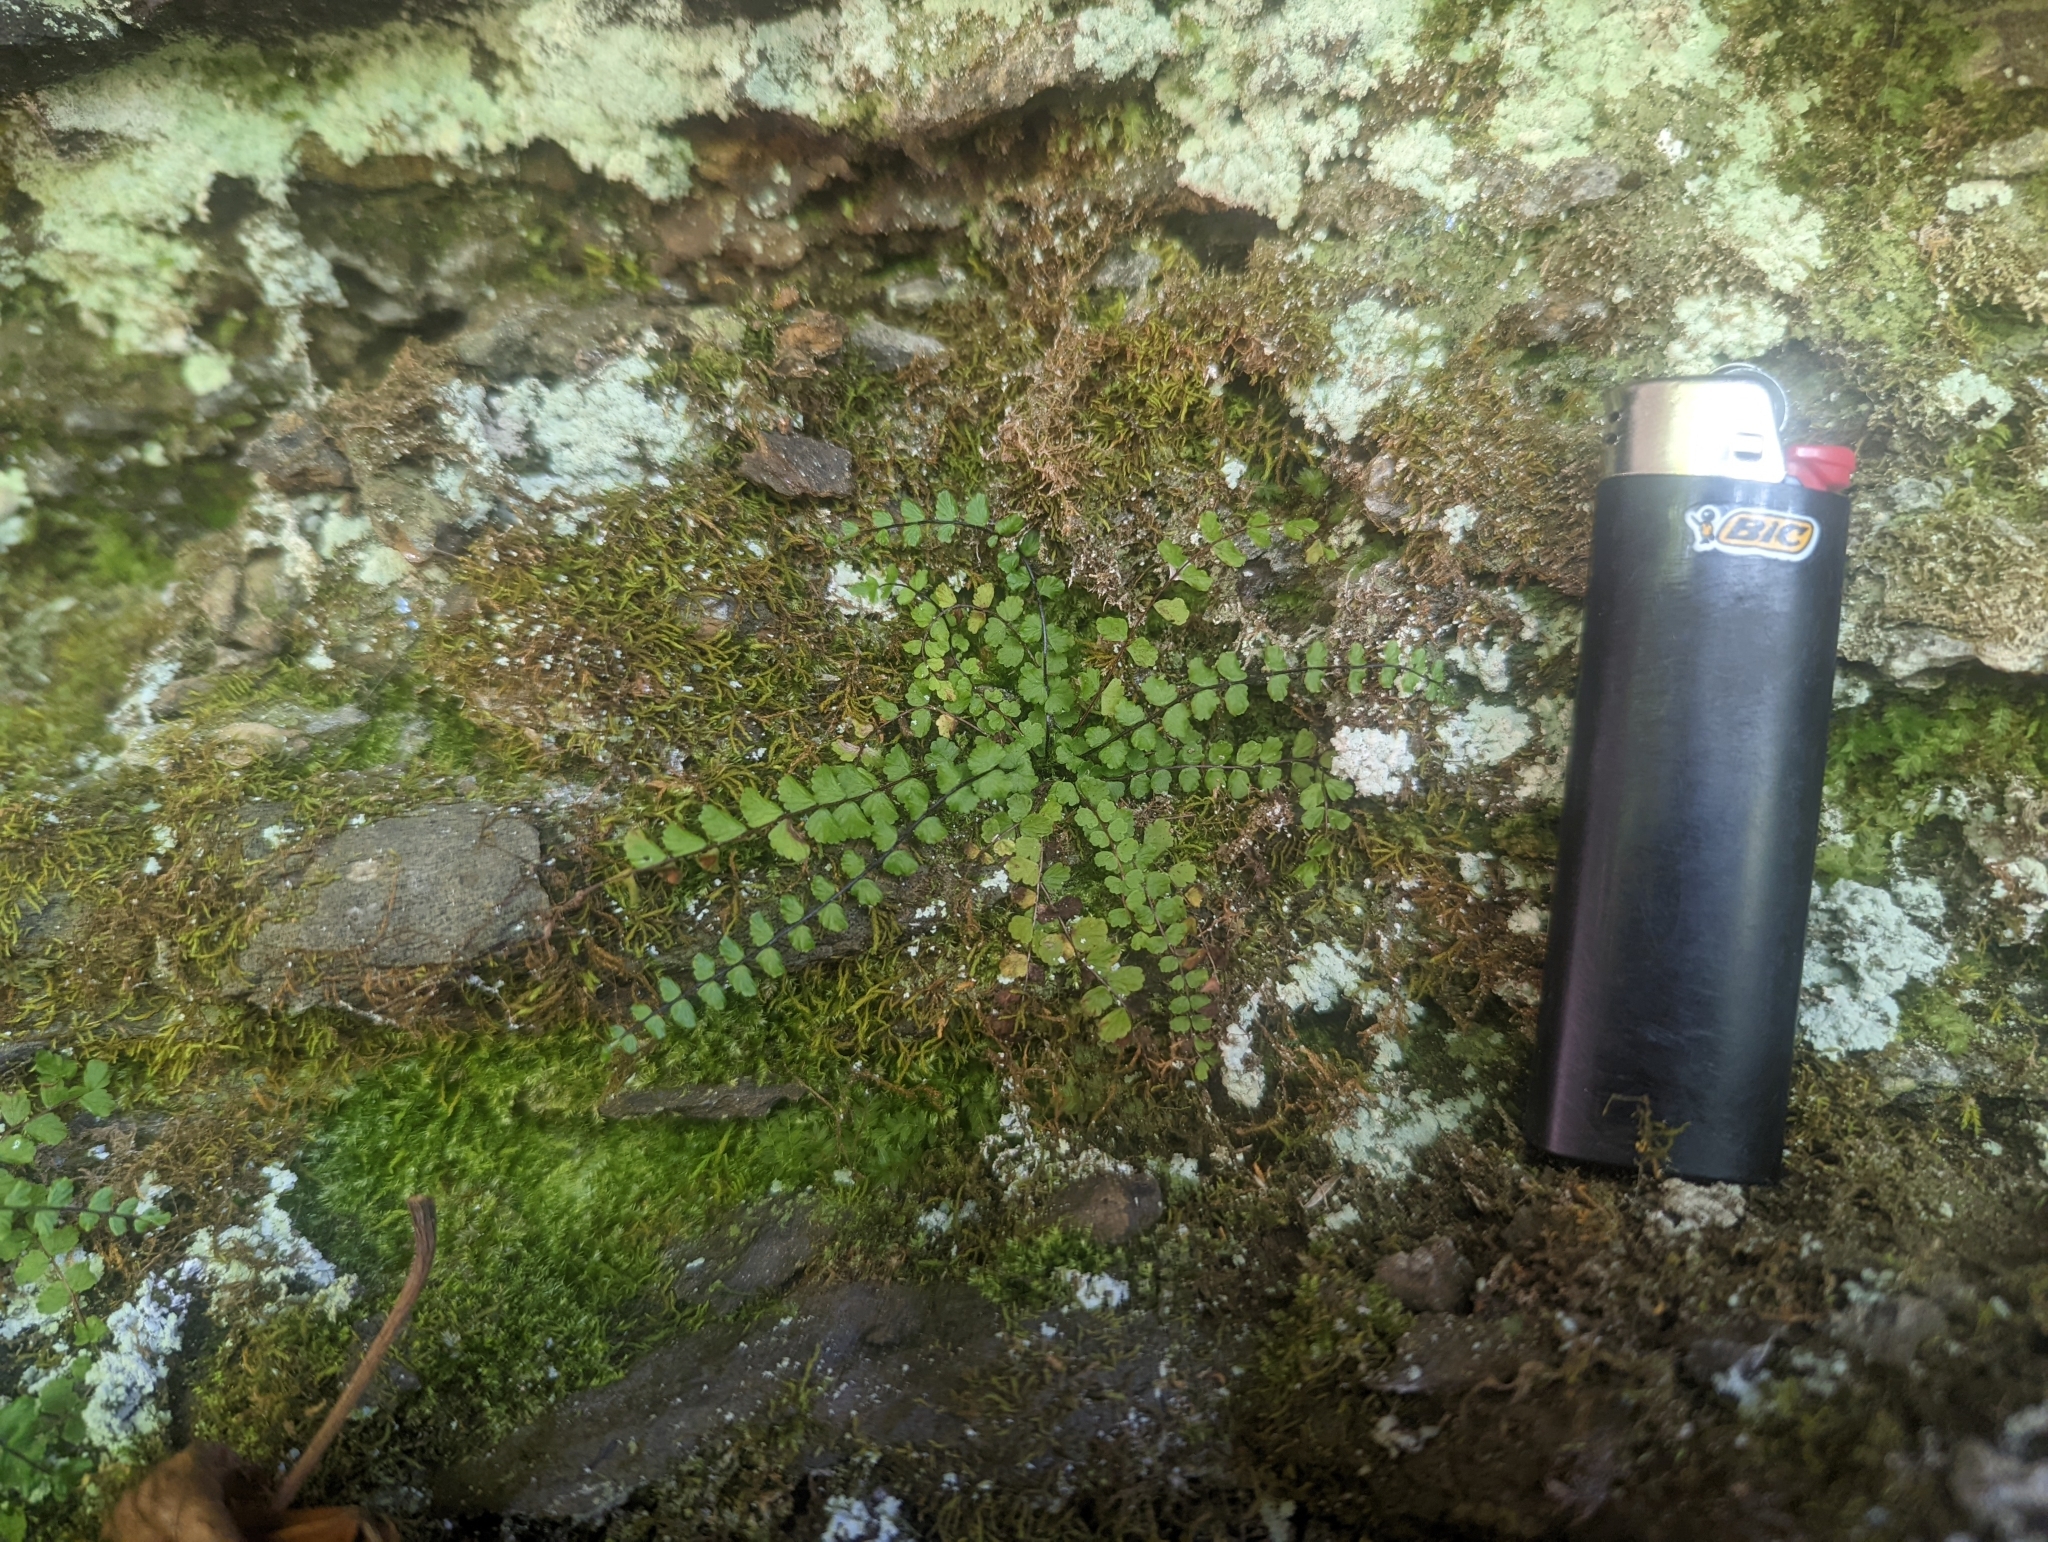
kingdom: Plantae
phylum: Tracheophyta
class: Polypodiopsida
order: Polypodiales
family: Aspleniaceae
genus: Asplenium
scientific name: Asplenium trichomanes
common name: Maidenhair spleenwort
